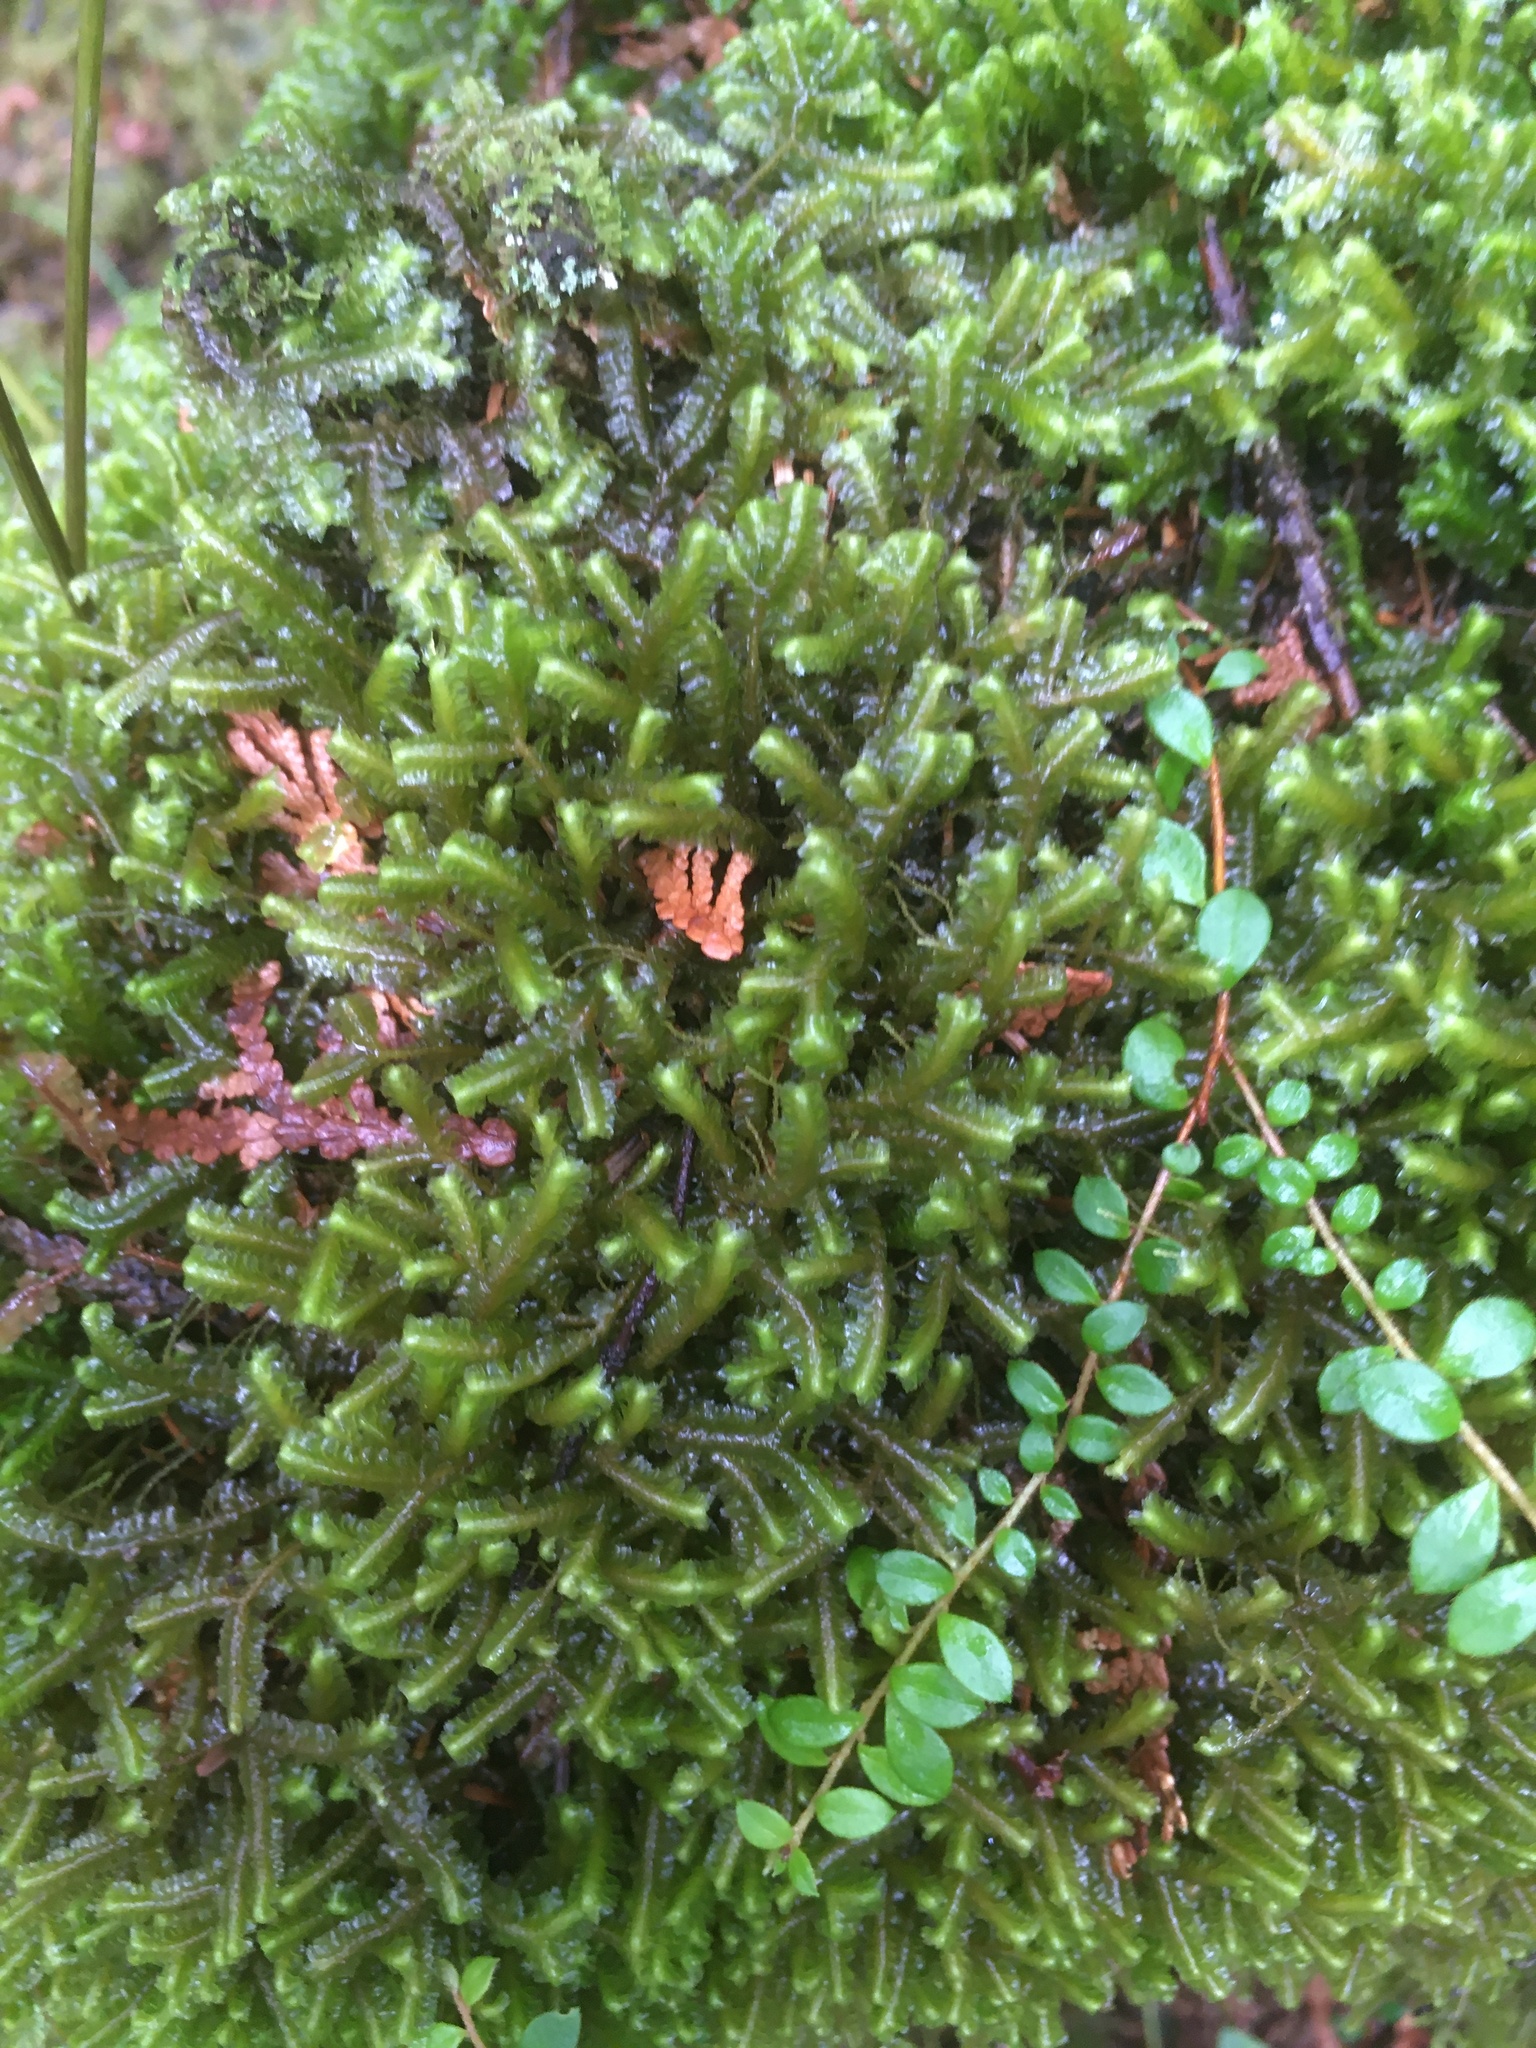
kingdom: Plantae
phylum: Marchantiophyta
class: Jungermanniopsida
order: Jungermanniales
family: Lepidoziaceae
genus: Bazzania
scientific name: Bazzania trilobata
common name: Three-lobed whipwort
